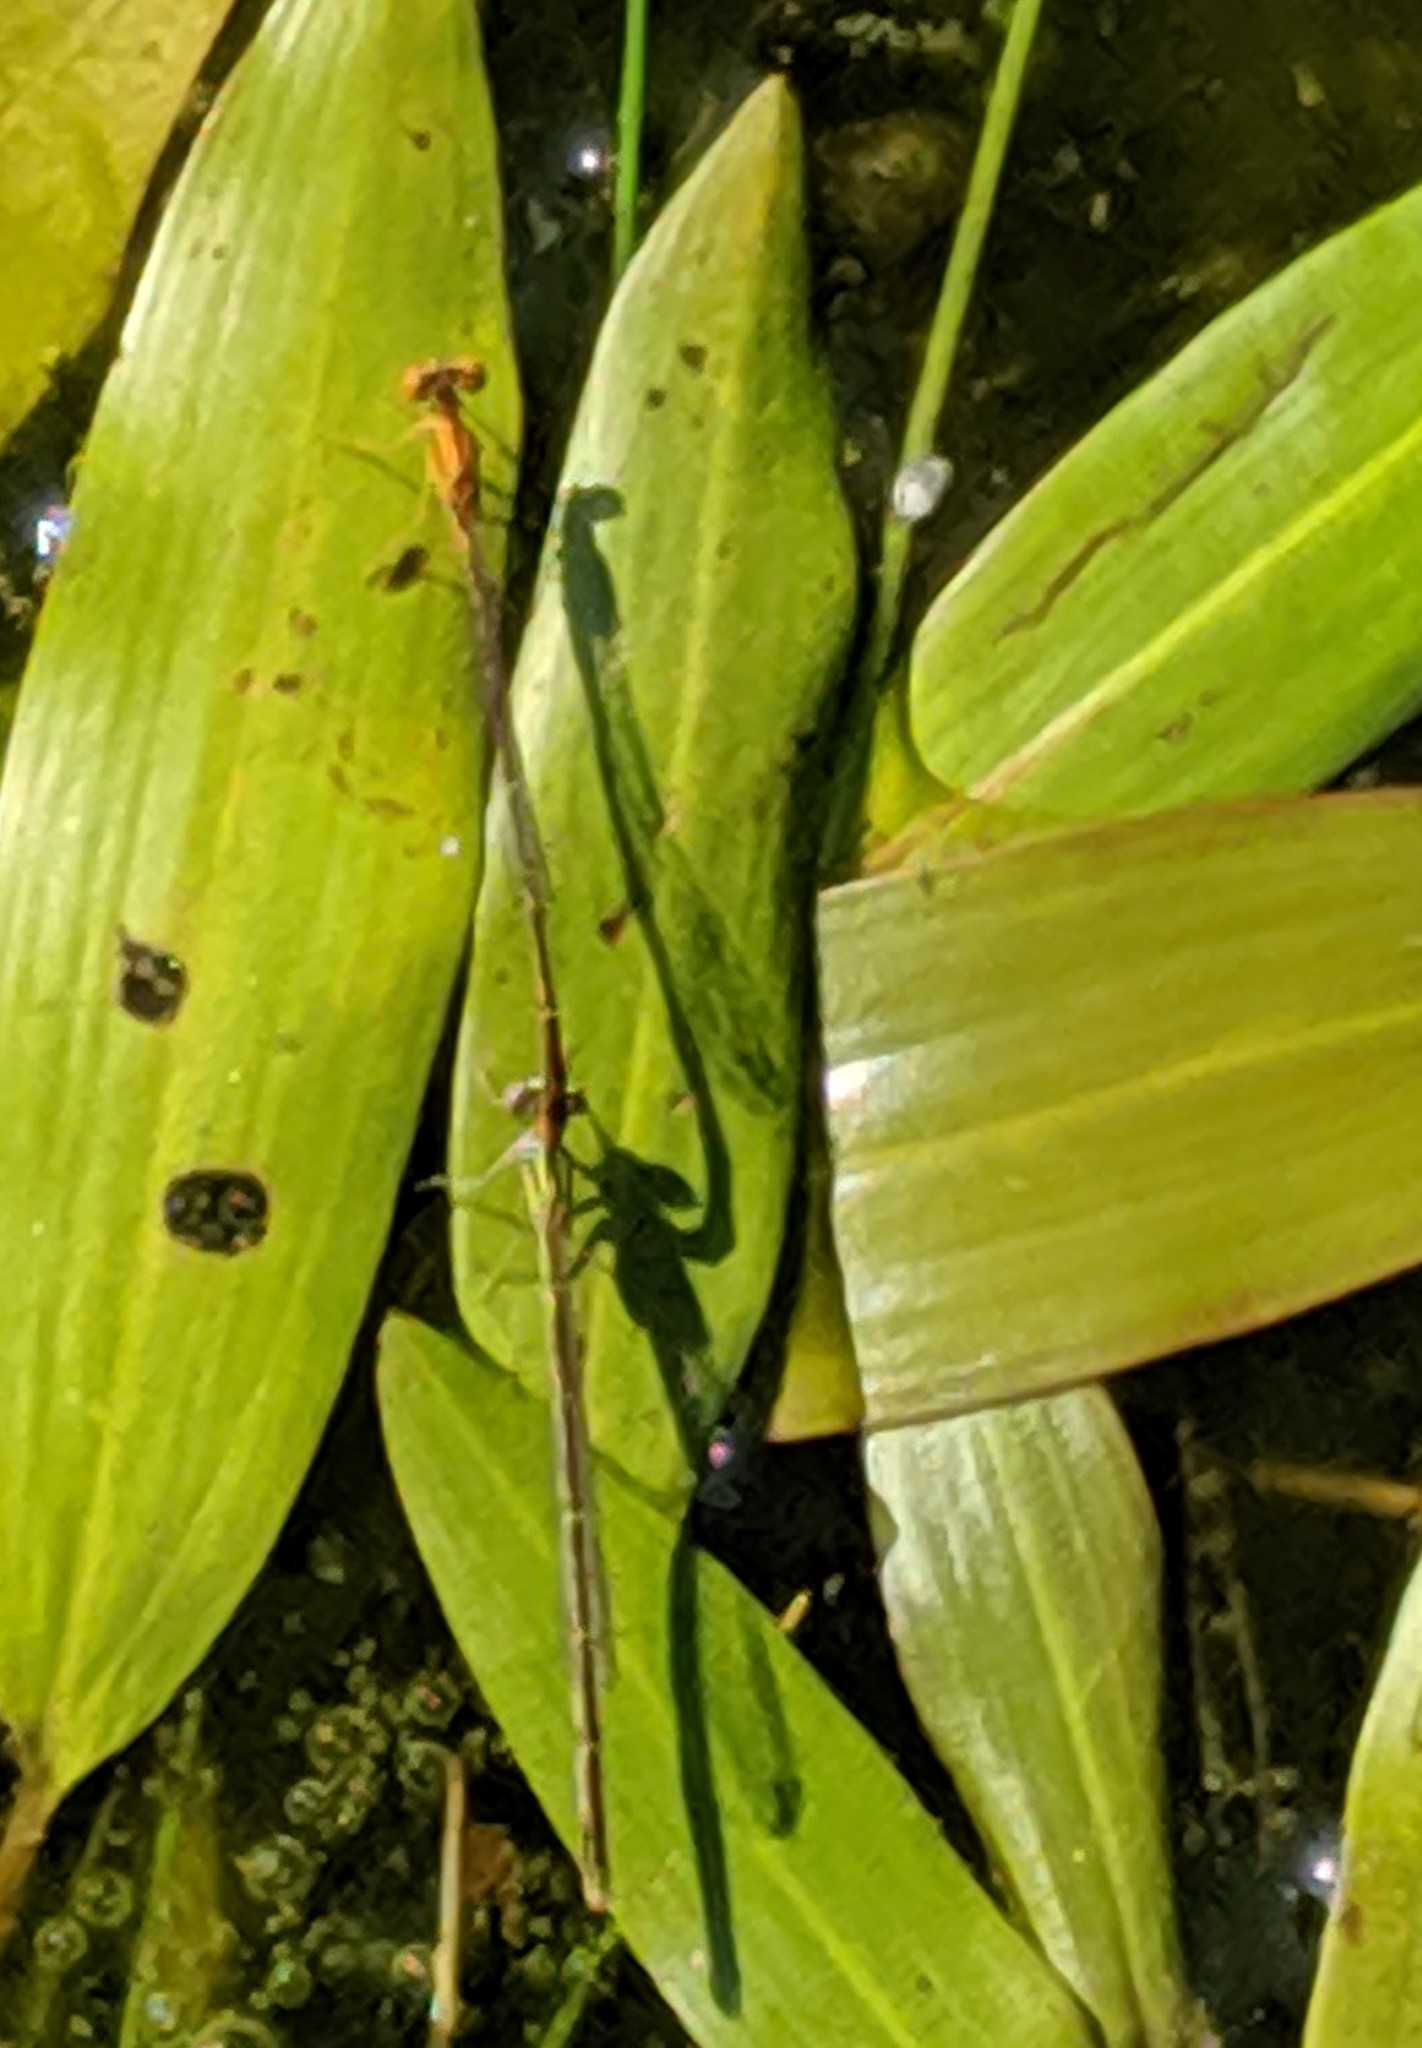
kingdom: Animalia
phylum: Arthropoda
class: Insecta
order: Odonata
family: Coenagrionidae
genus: Enallagma
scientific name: Enallagma signatum
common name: Orange bluet
